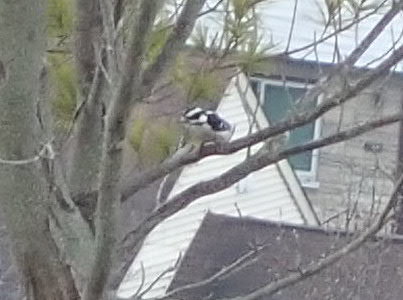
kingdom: Animalia
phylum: Chordata
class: Aves
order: Piciformes
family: Picidae
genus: Dryobates
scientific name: Dryobates pubescens
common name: Downy woodpecker
